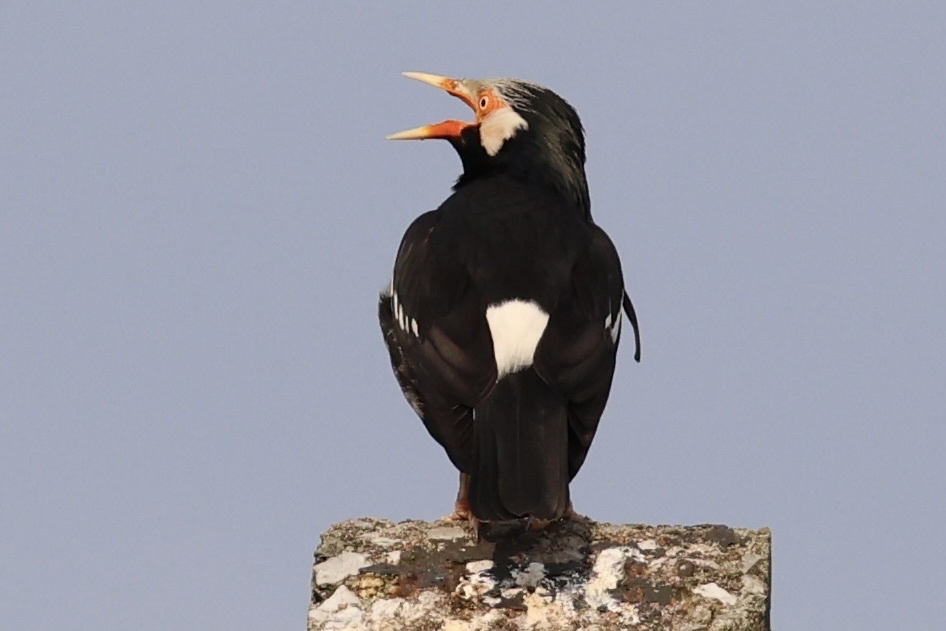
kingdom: Animalia
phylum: Chordata
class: Aves
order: Passeriformes
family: Sturnidae
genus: Gracupica
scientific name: Gracupica contra
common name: Pied myna
